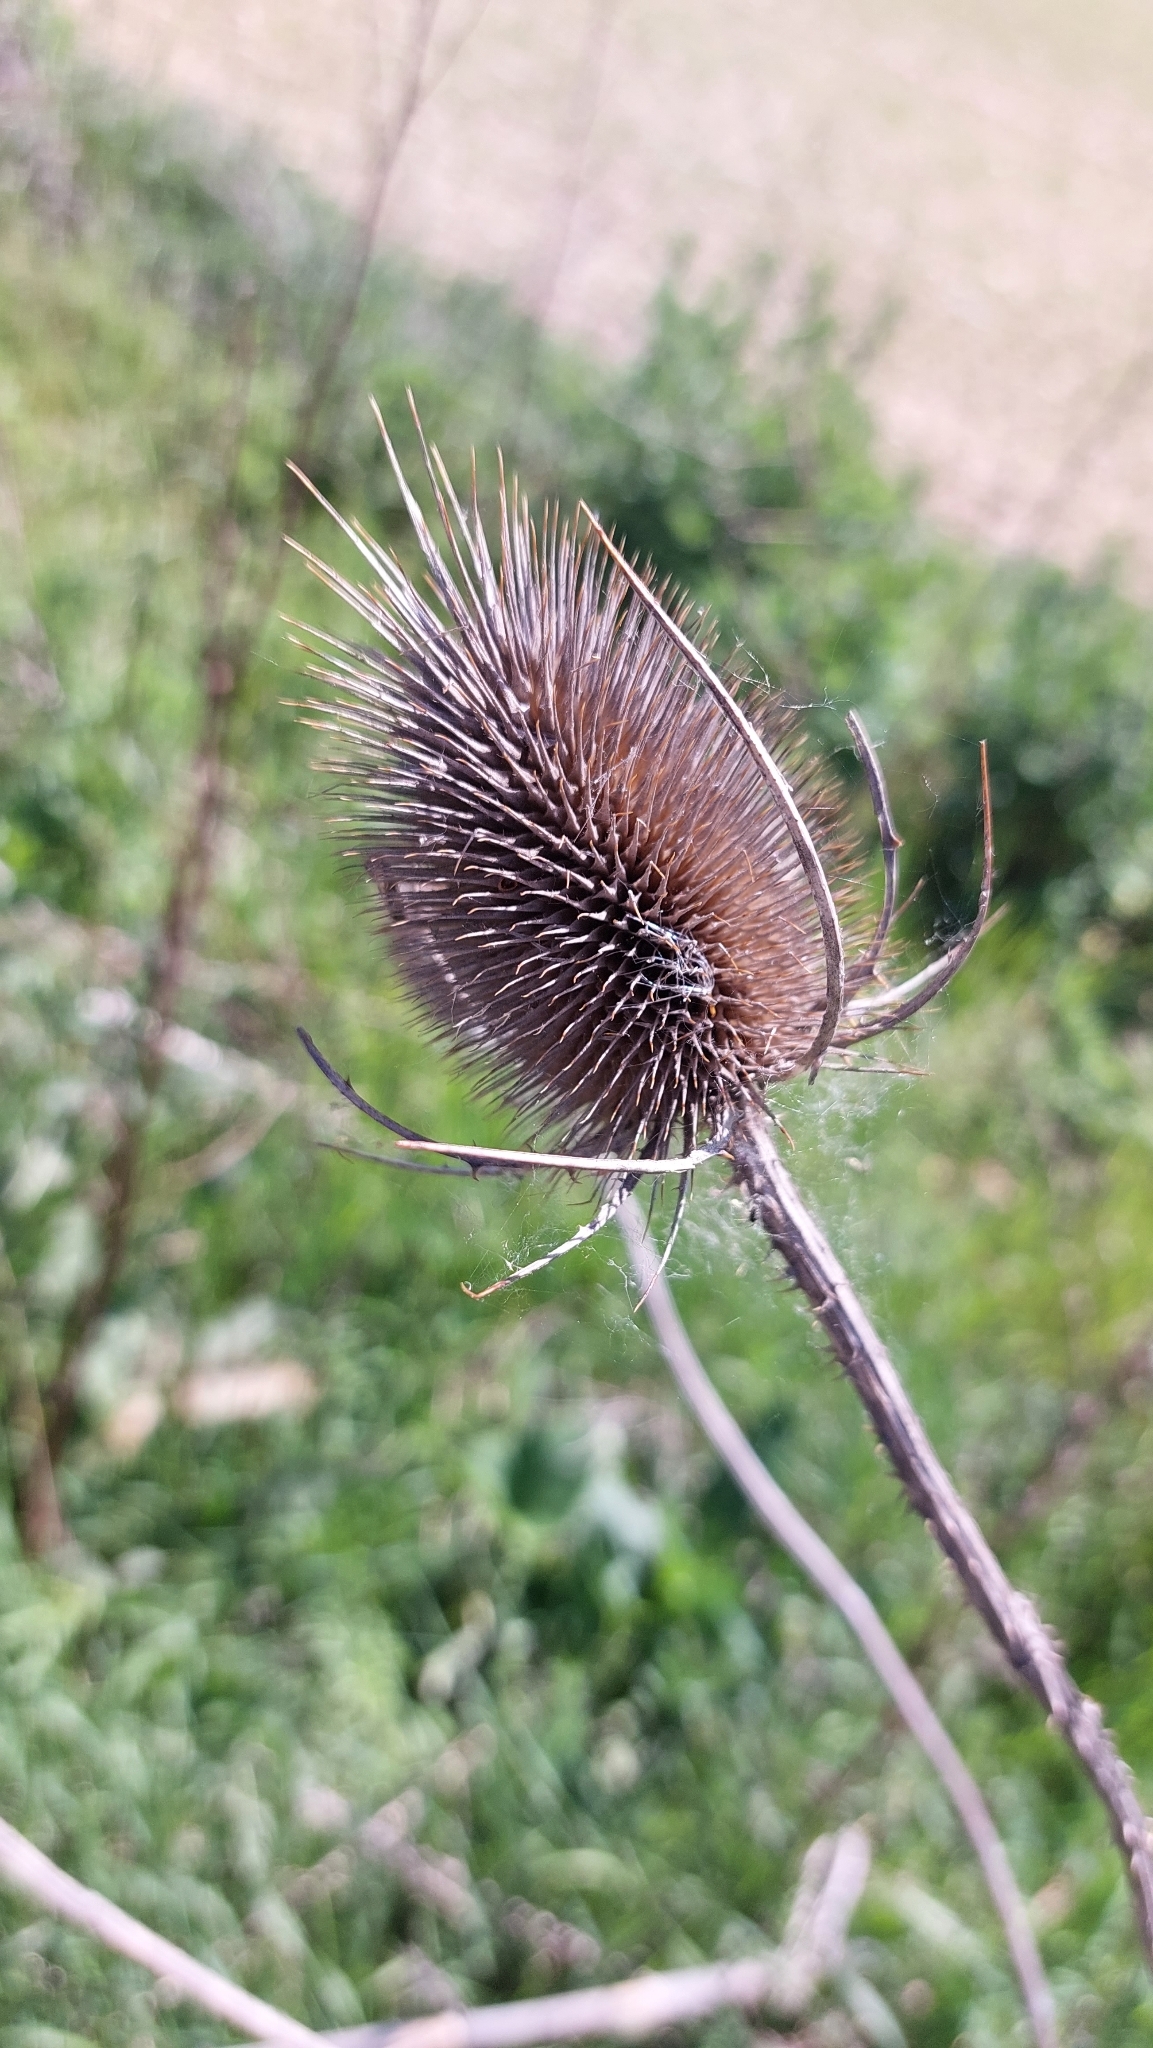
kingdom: Plantae
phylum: Tracheophyta
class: Magnoliopsida
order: Dipsacales
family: Caprifoliaceae
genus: Dipsacus
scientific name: Dipsacus fullonum
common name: Teasel
